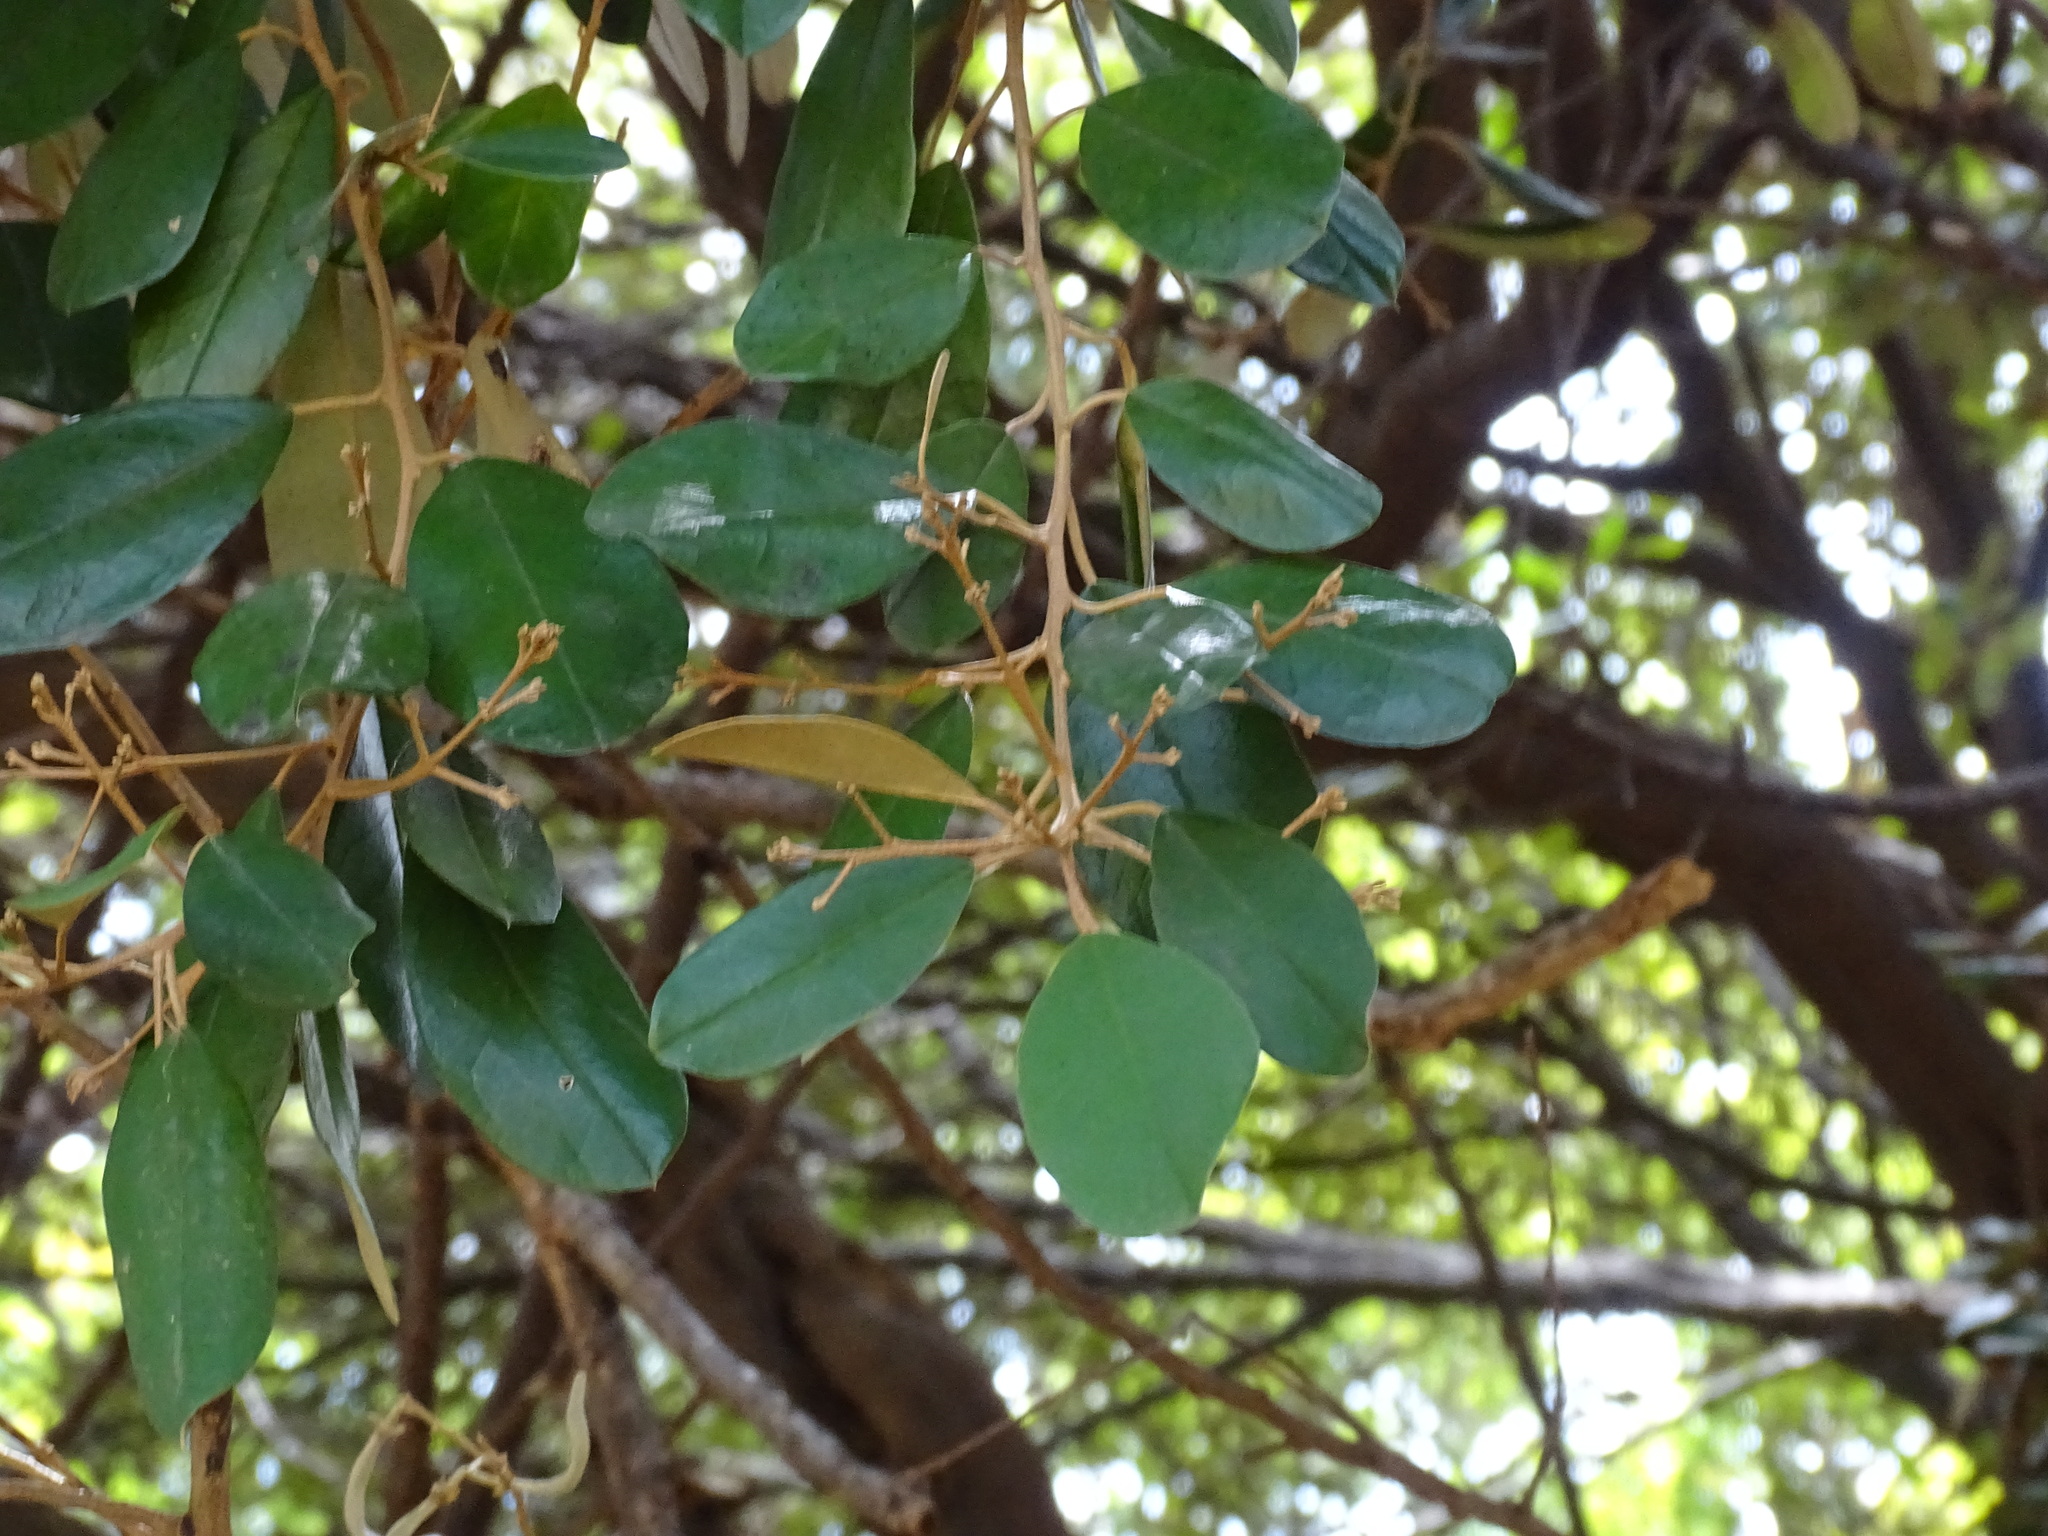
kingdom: Plantae
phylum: Tracheophyta
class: Magnoliopsida
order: Brassicales
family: Capparaceae
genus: Quadrella
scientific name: Quadrella indica
